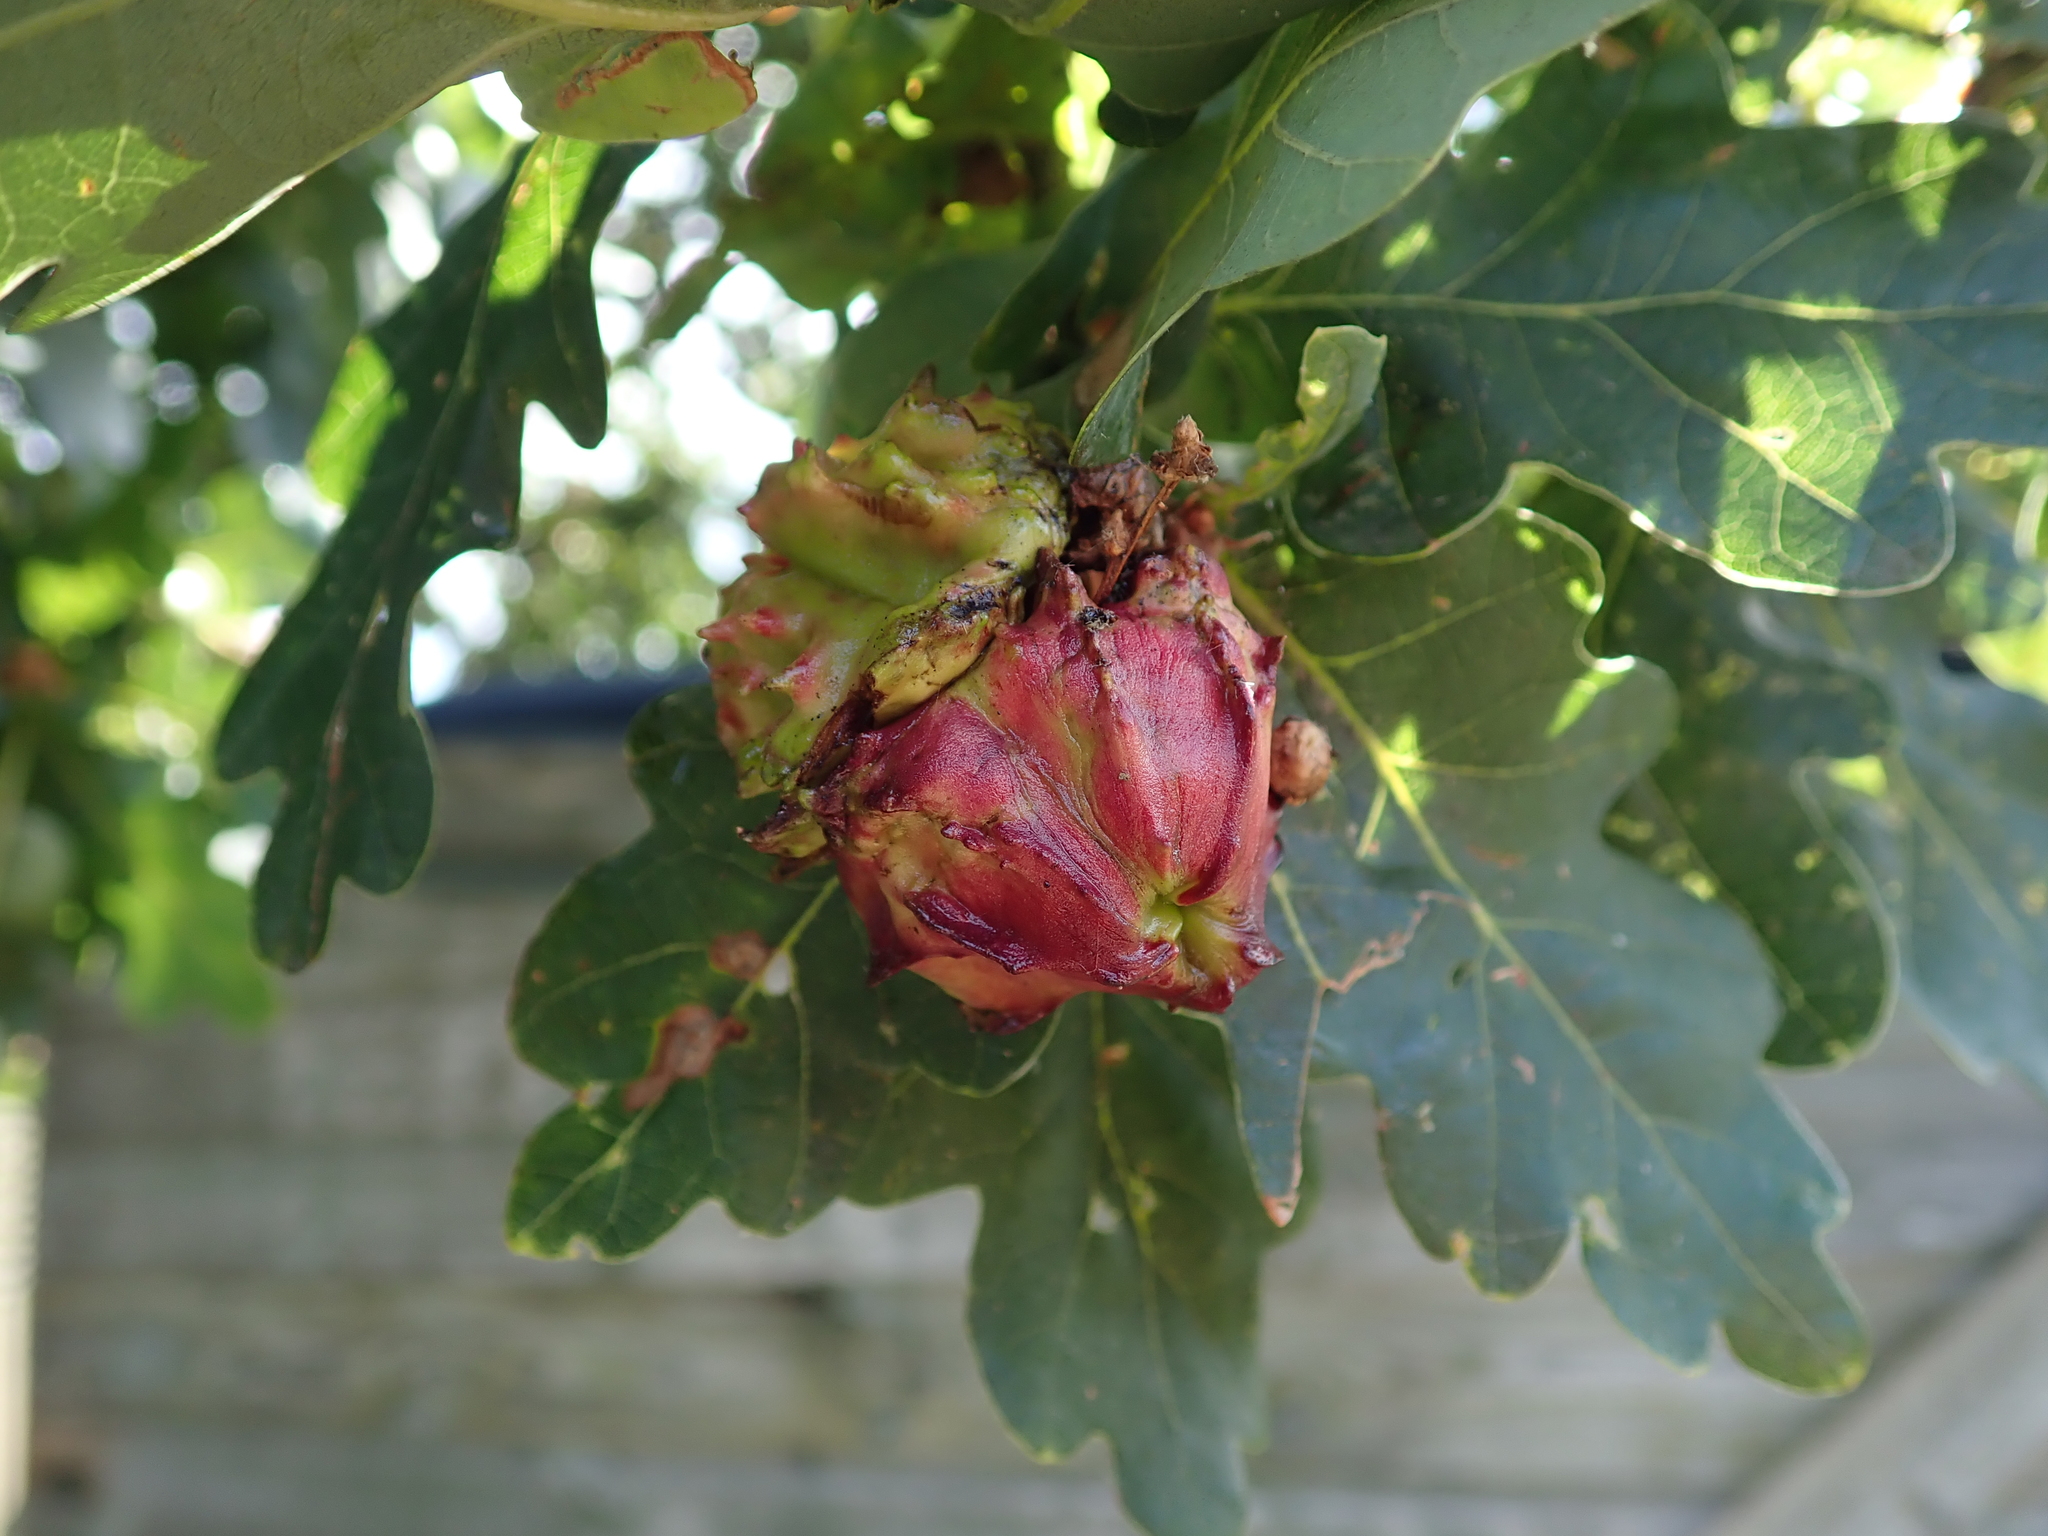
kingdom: Animalia
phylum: Arthropoda
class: Insecta
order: Hymenoptera
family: Cynipidae
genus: Andricus
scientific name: Andricus quercuscalicis
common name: Knopper gall
